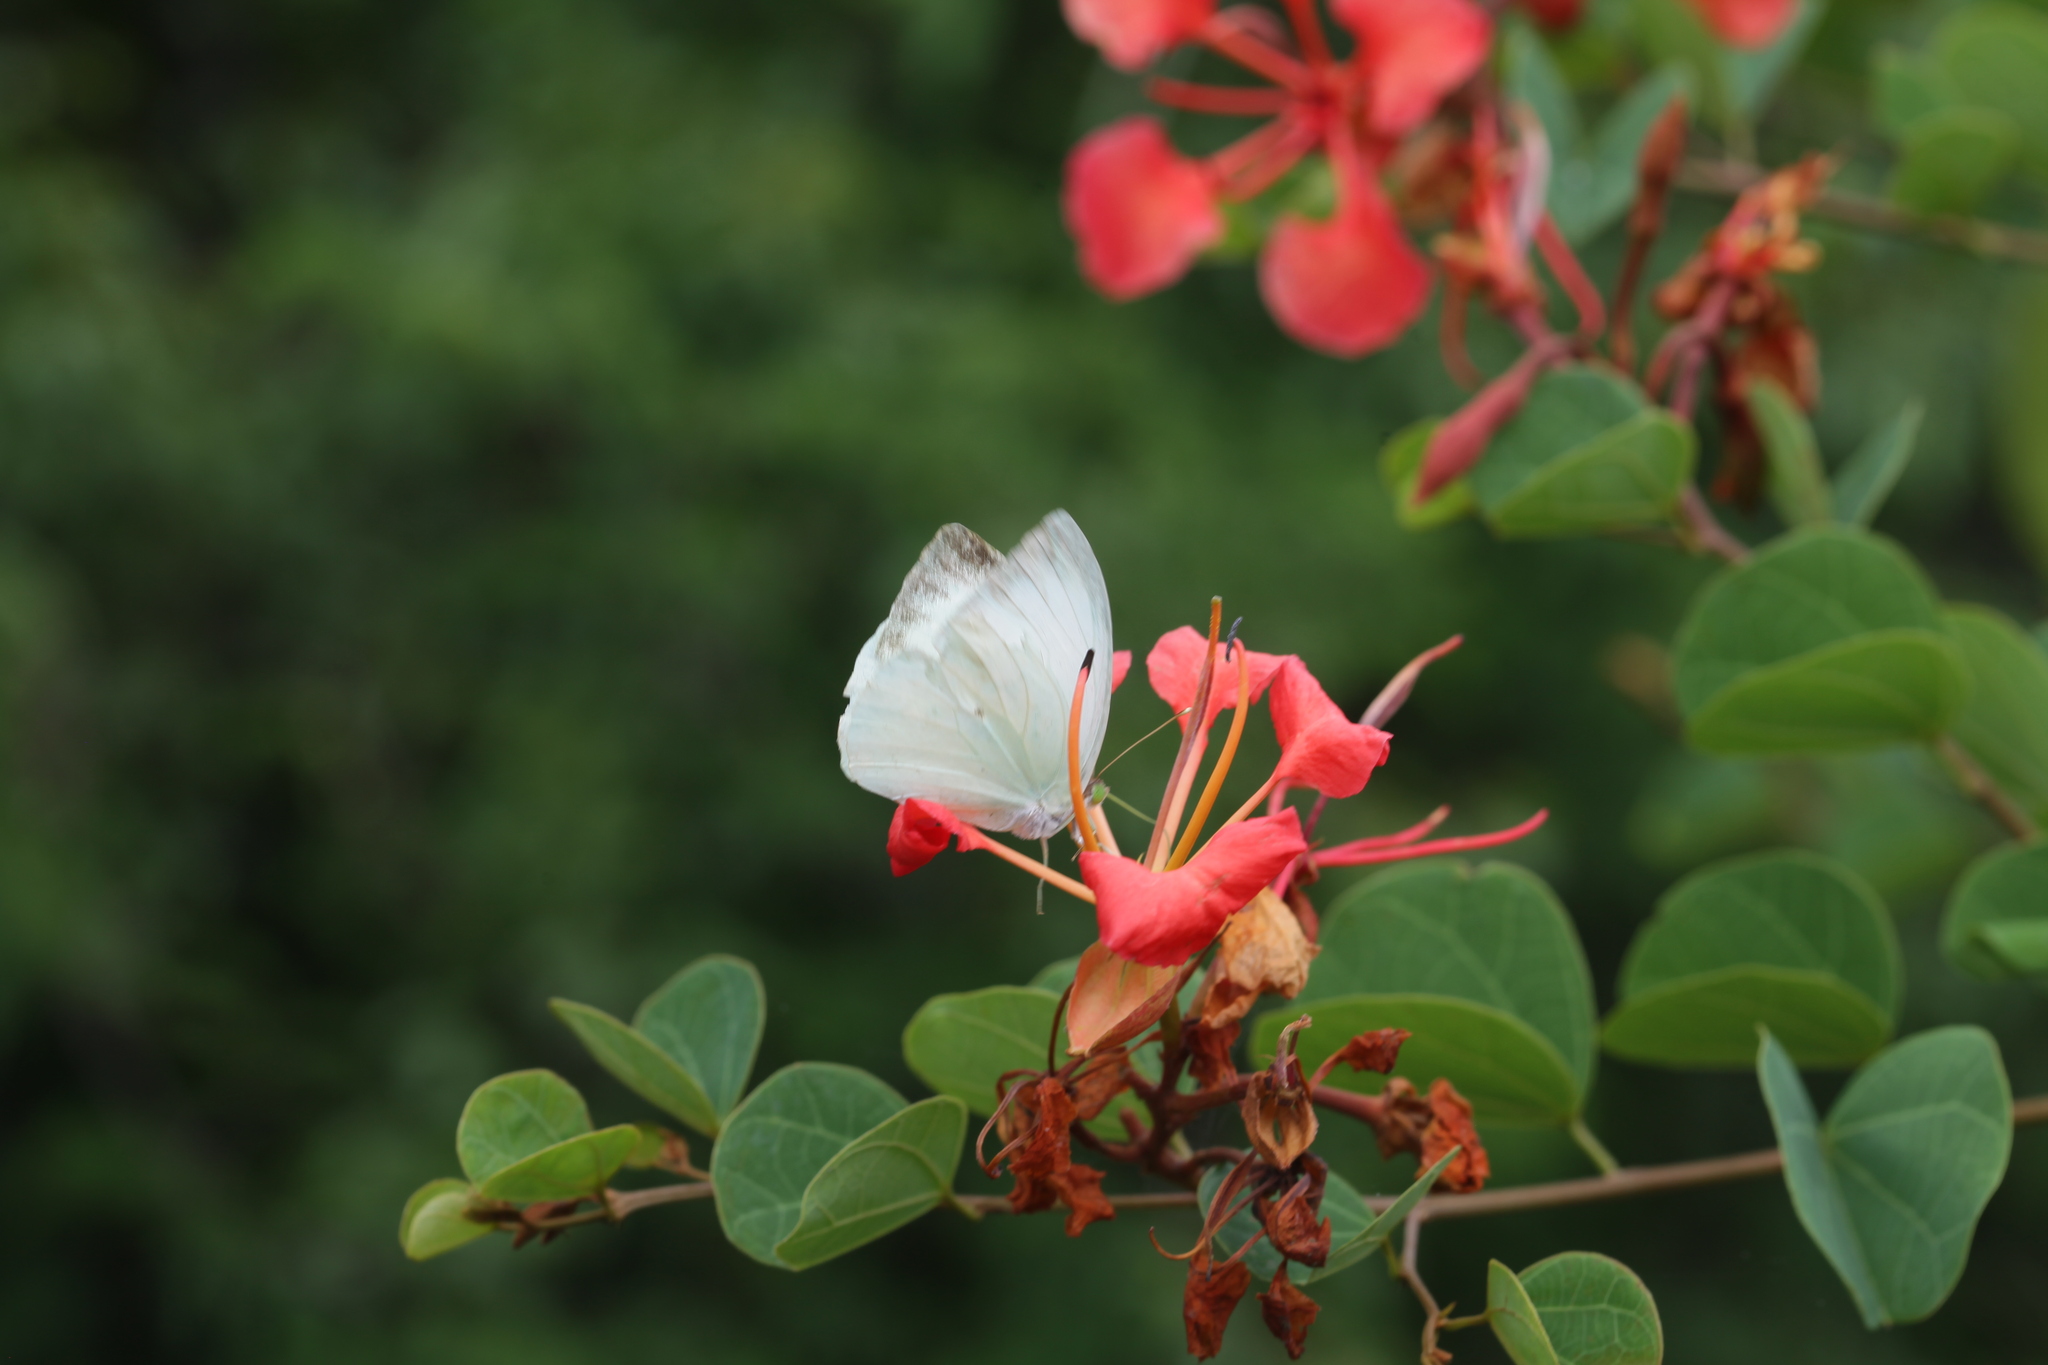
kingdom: Animalia
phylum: Arthropoda
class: Insecta
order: Lepidoptera
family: Pieridae
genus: Nepheronia
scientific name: Nepheronia buquetii
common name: Plain vagrant
